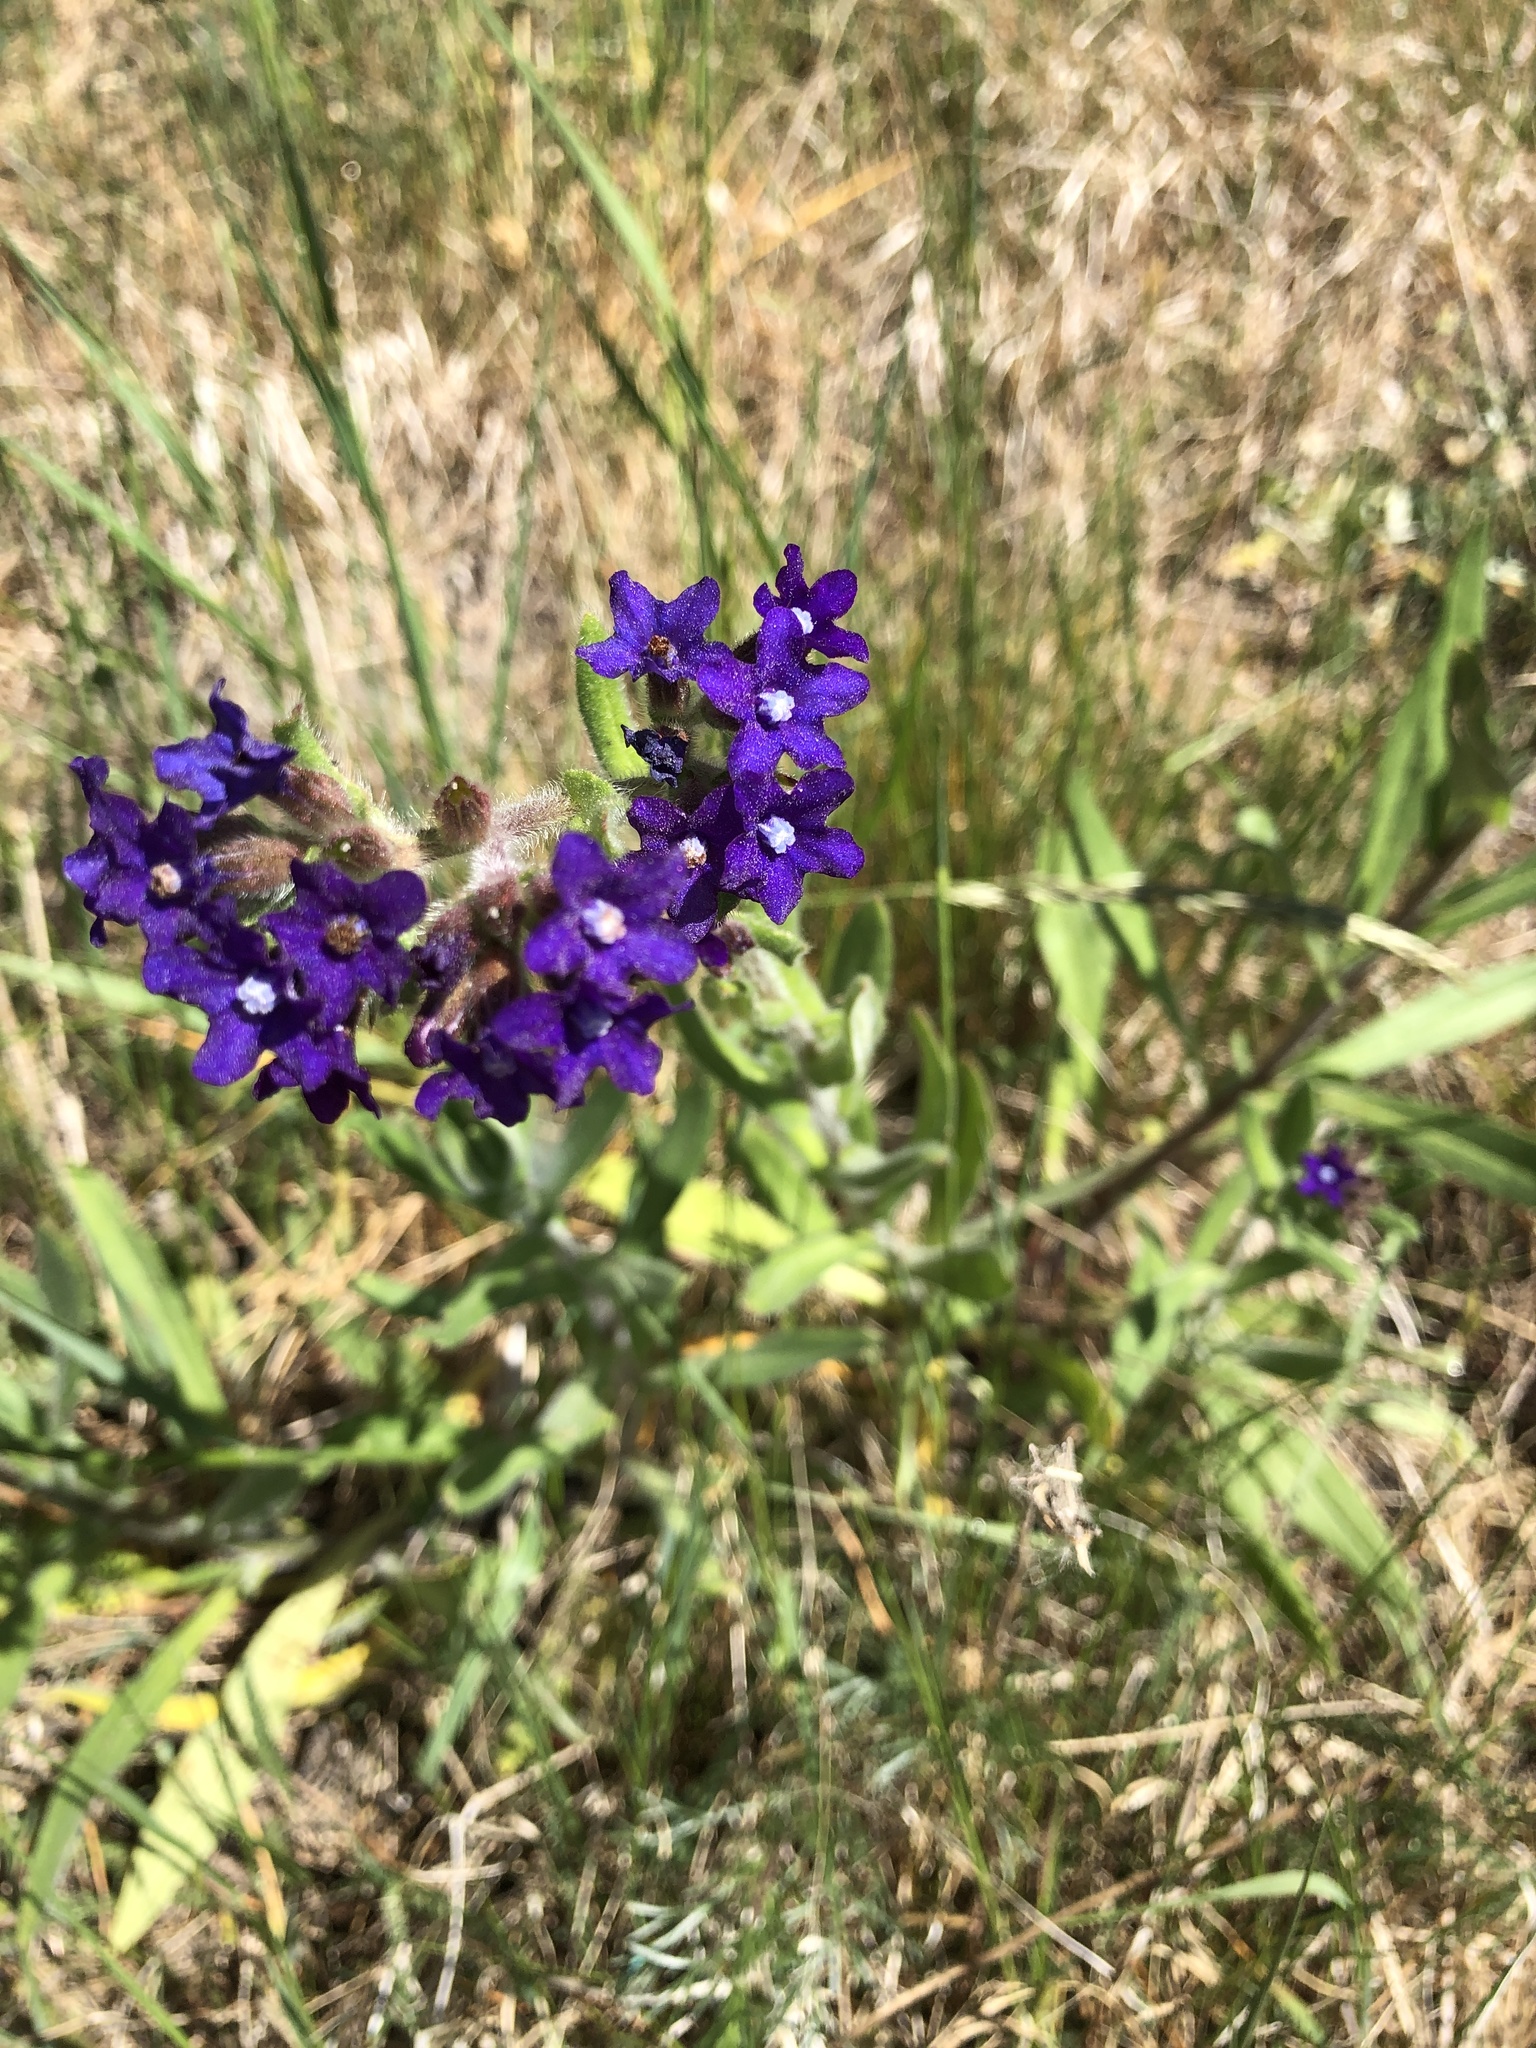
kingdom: Plantae
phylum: Tracheophyta
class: Magnoliopsida
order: Boraginales
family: Boraginaceae
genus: Anchusa
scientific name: Anchusa officinalis
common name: Alkanet
